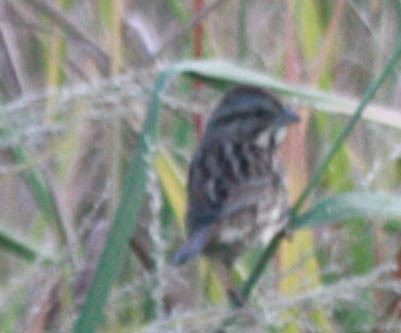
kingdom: Animalia
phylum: Chordata
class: Aves
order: Passeriformes
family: Passerellidae
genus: Melospiza
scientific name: Melospiza melodia
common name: Song sparrow
